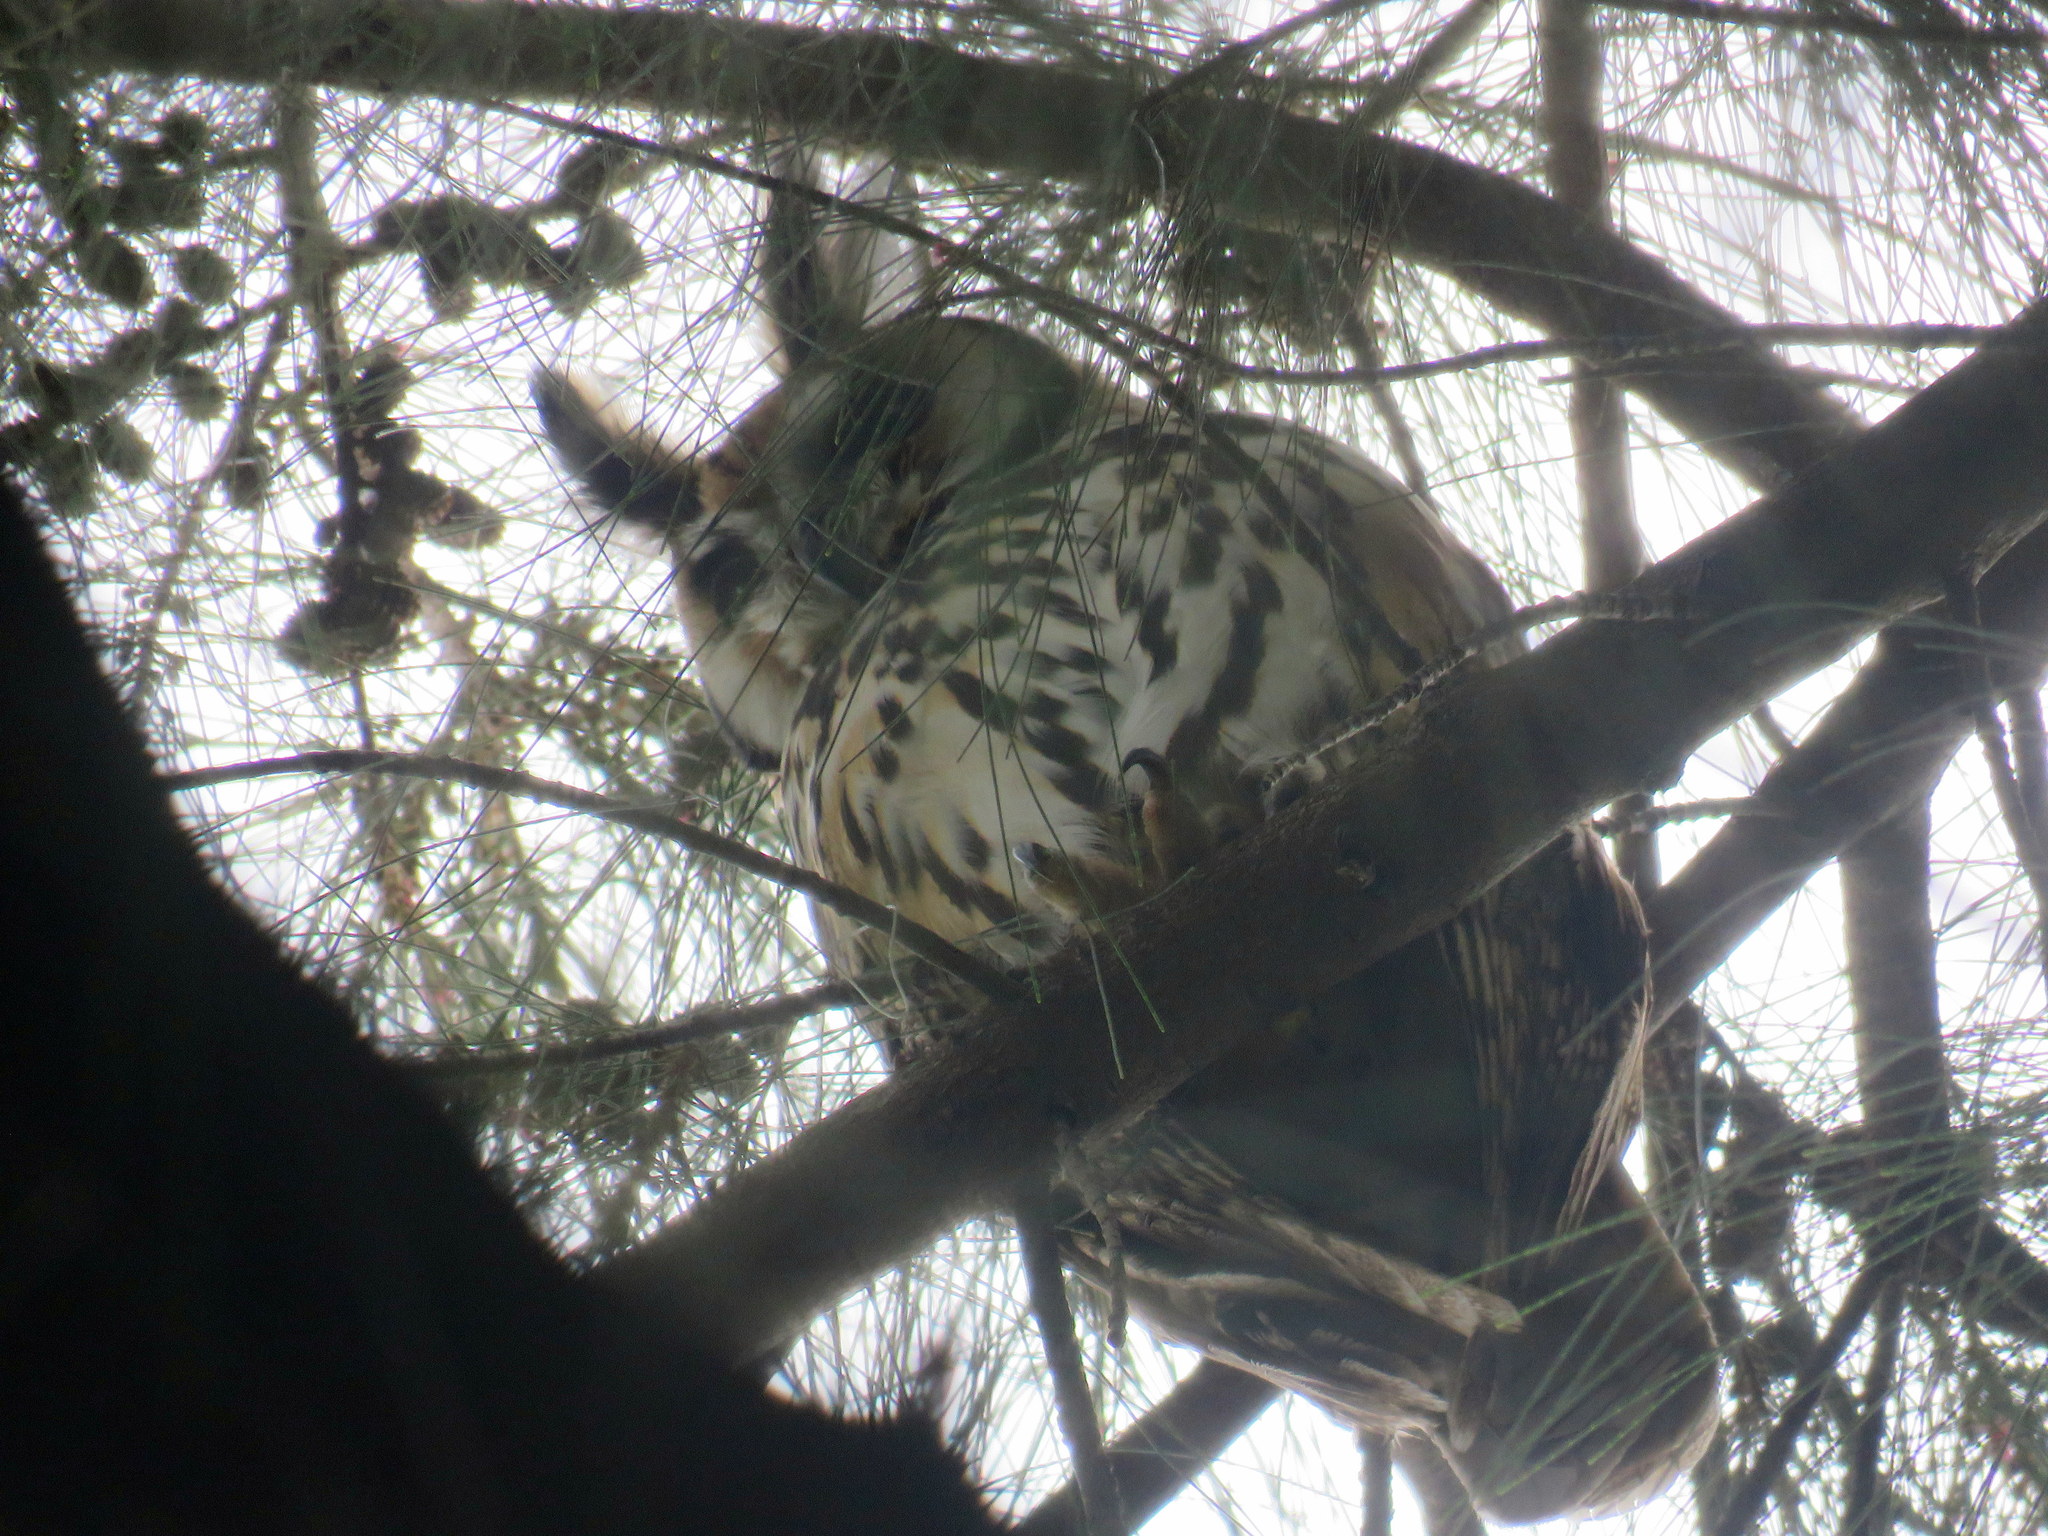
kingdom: Animalia
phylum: Chordata
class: Aves
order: Strigiformes
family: Strigidae
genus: Pseudoscops
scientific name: Pseudoscops clamator
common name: Striped owl
